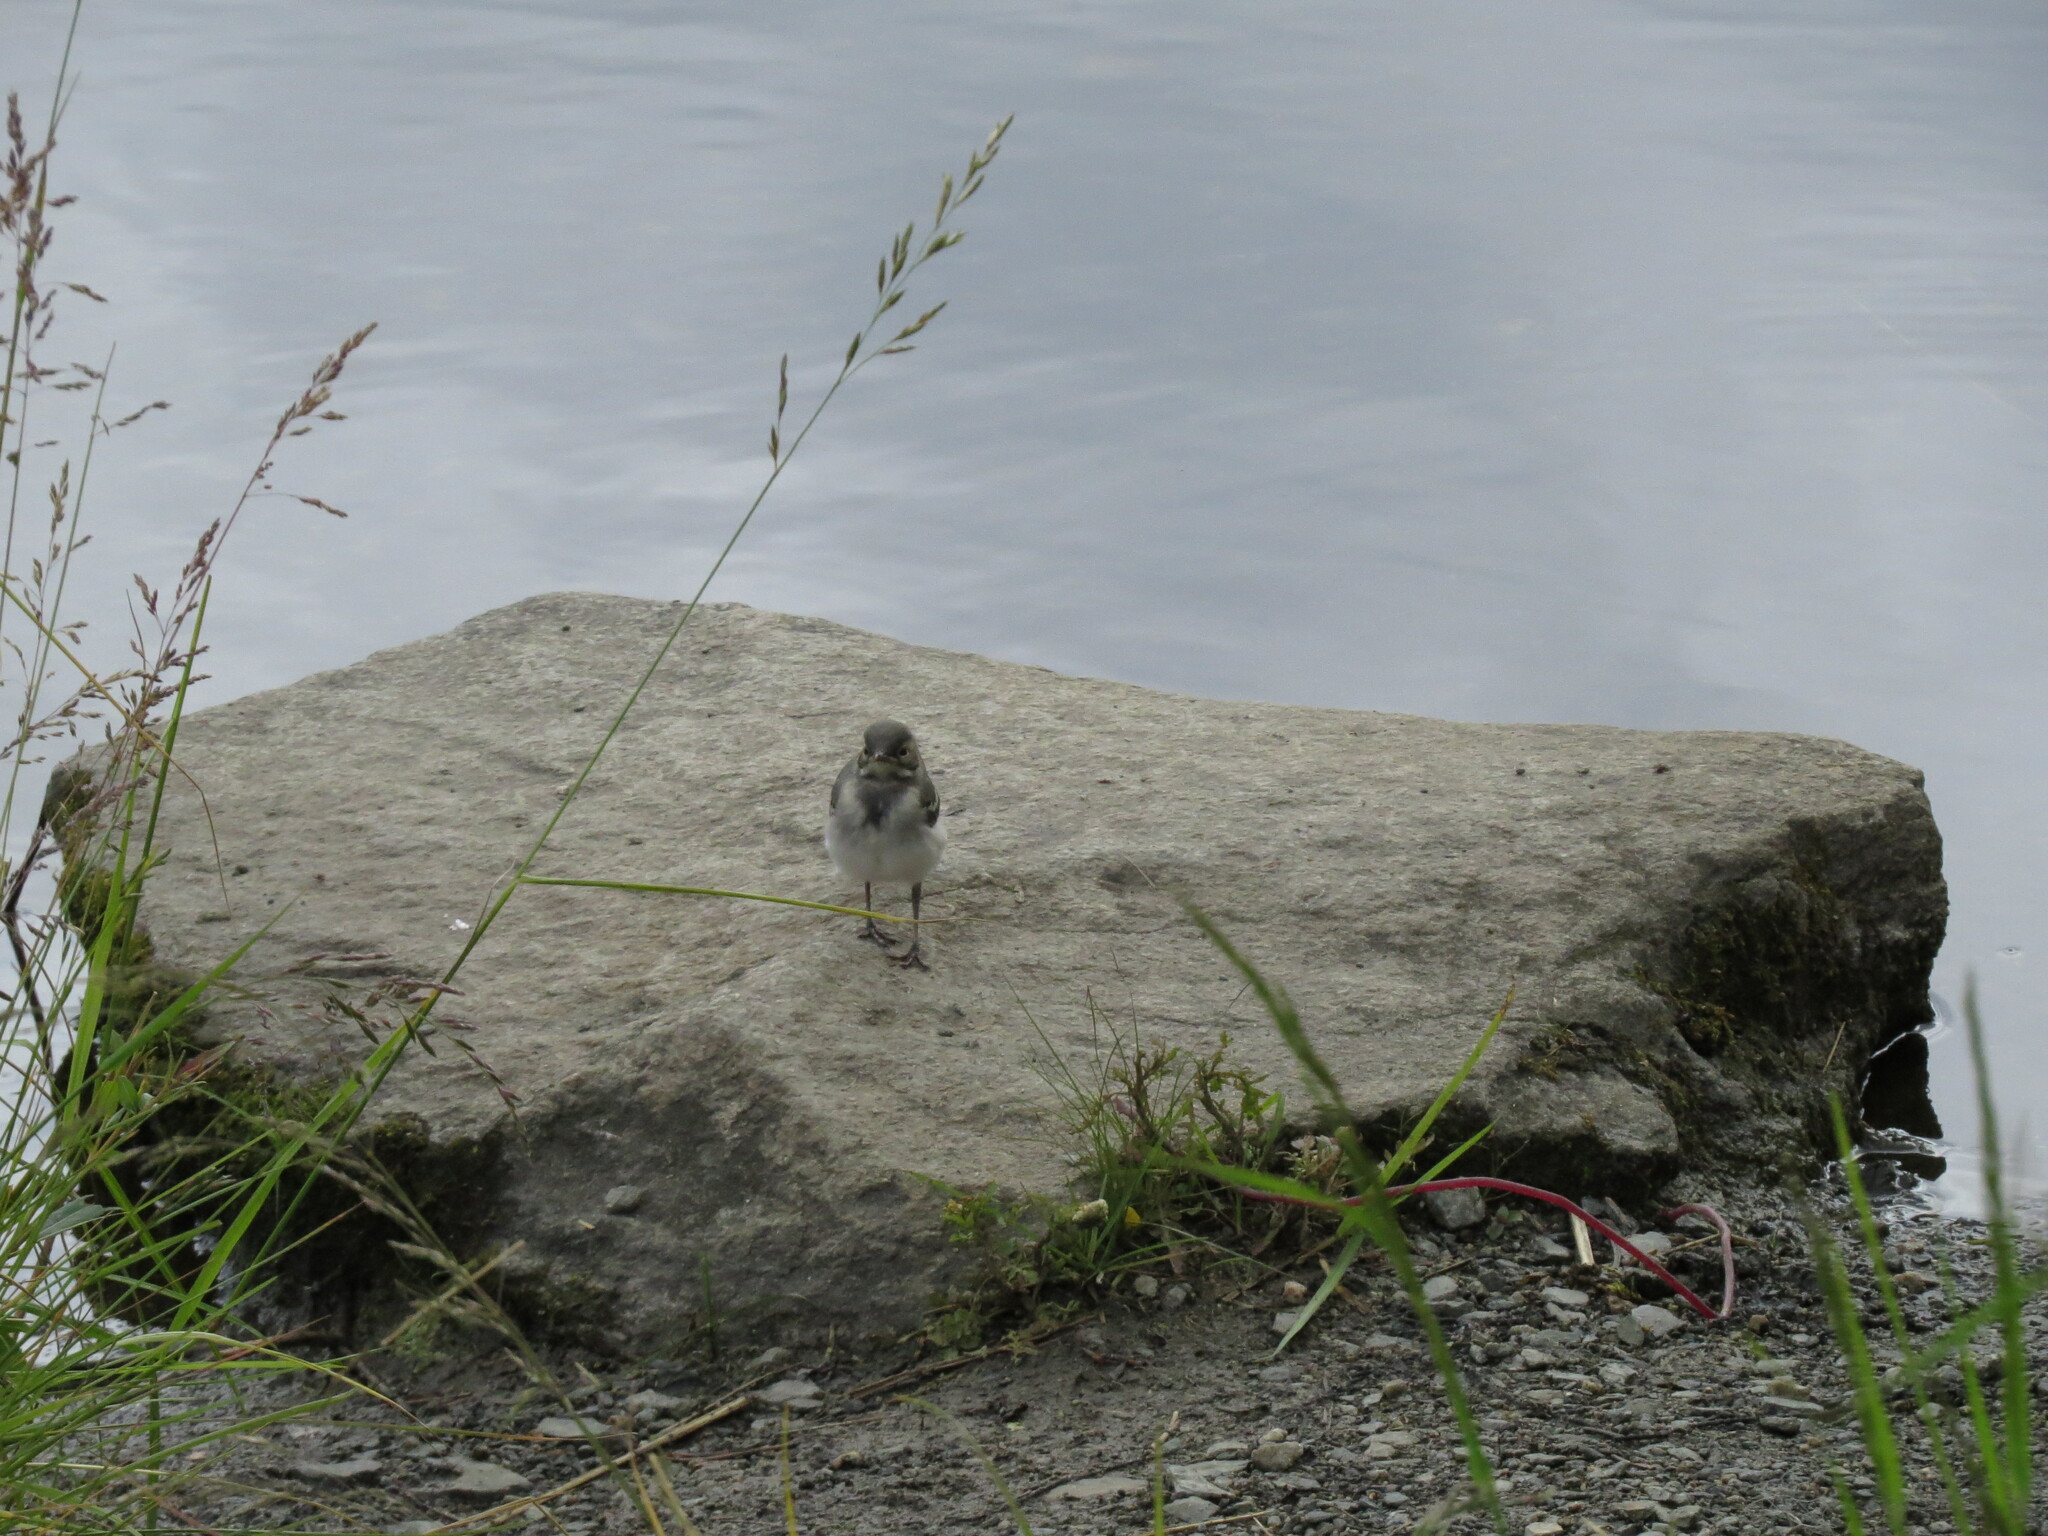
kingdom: Animalia
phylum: Chordata
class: Aves
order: Passeriformes
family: Motacillidae
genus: Motacilla
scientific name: Motacilla alba
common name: White wagtail
